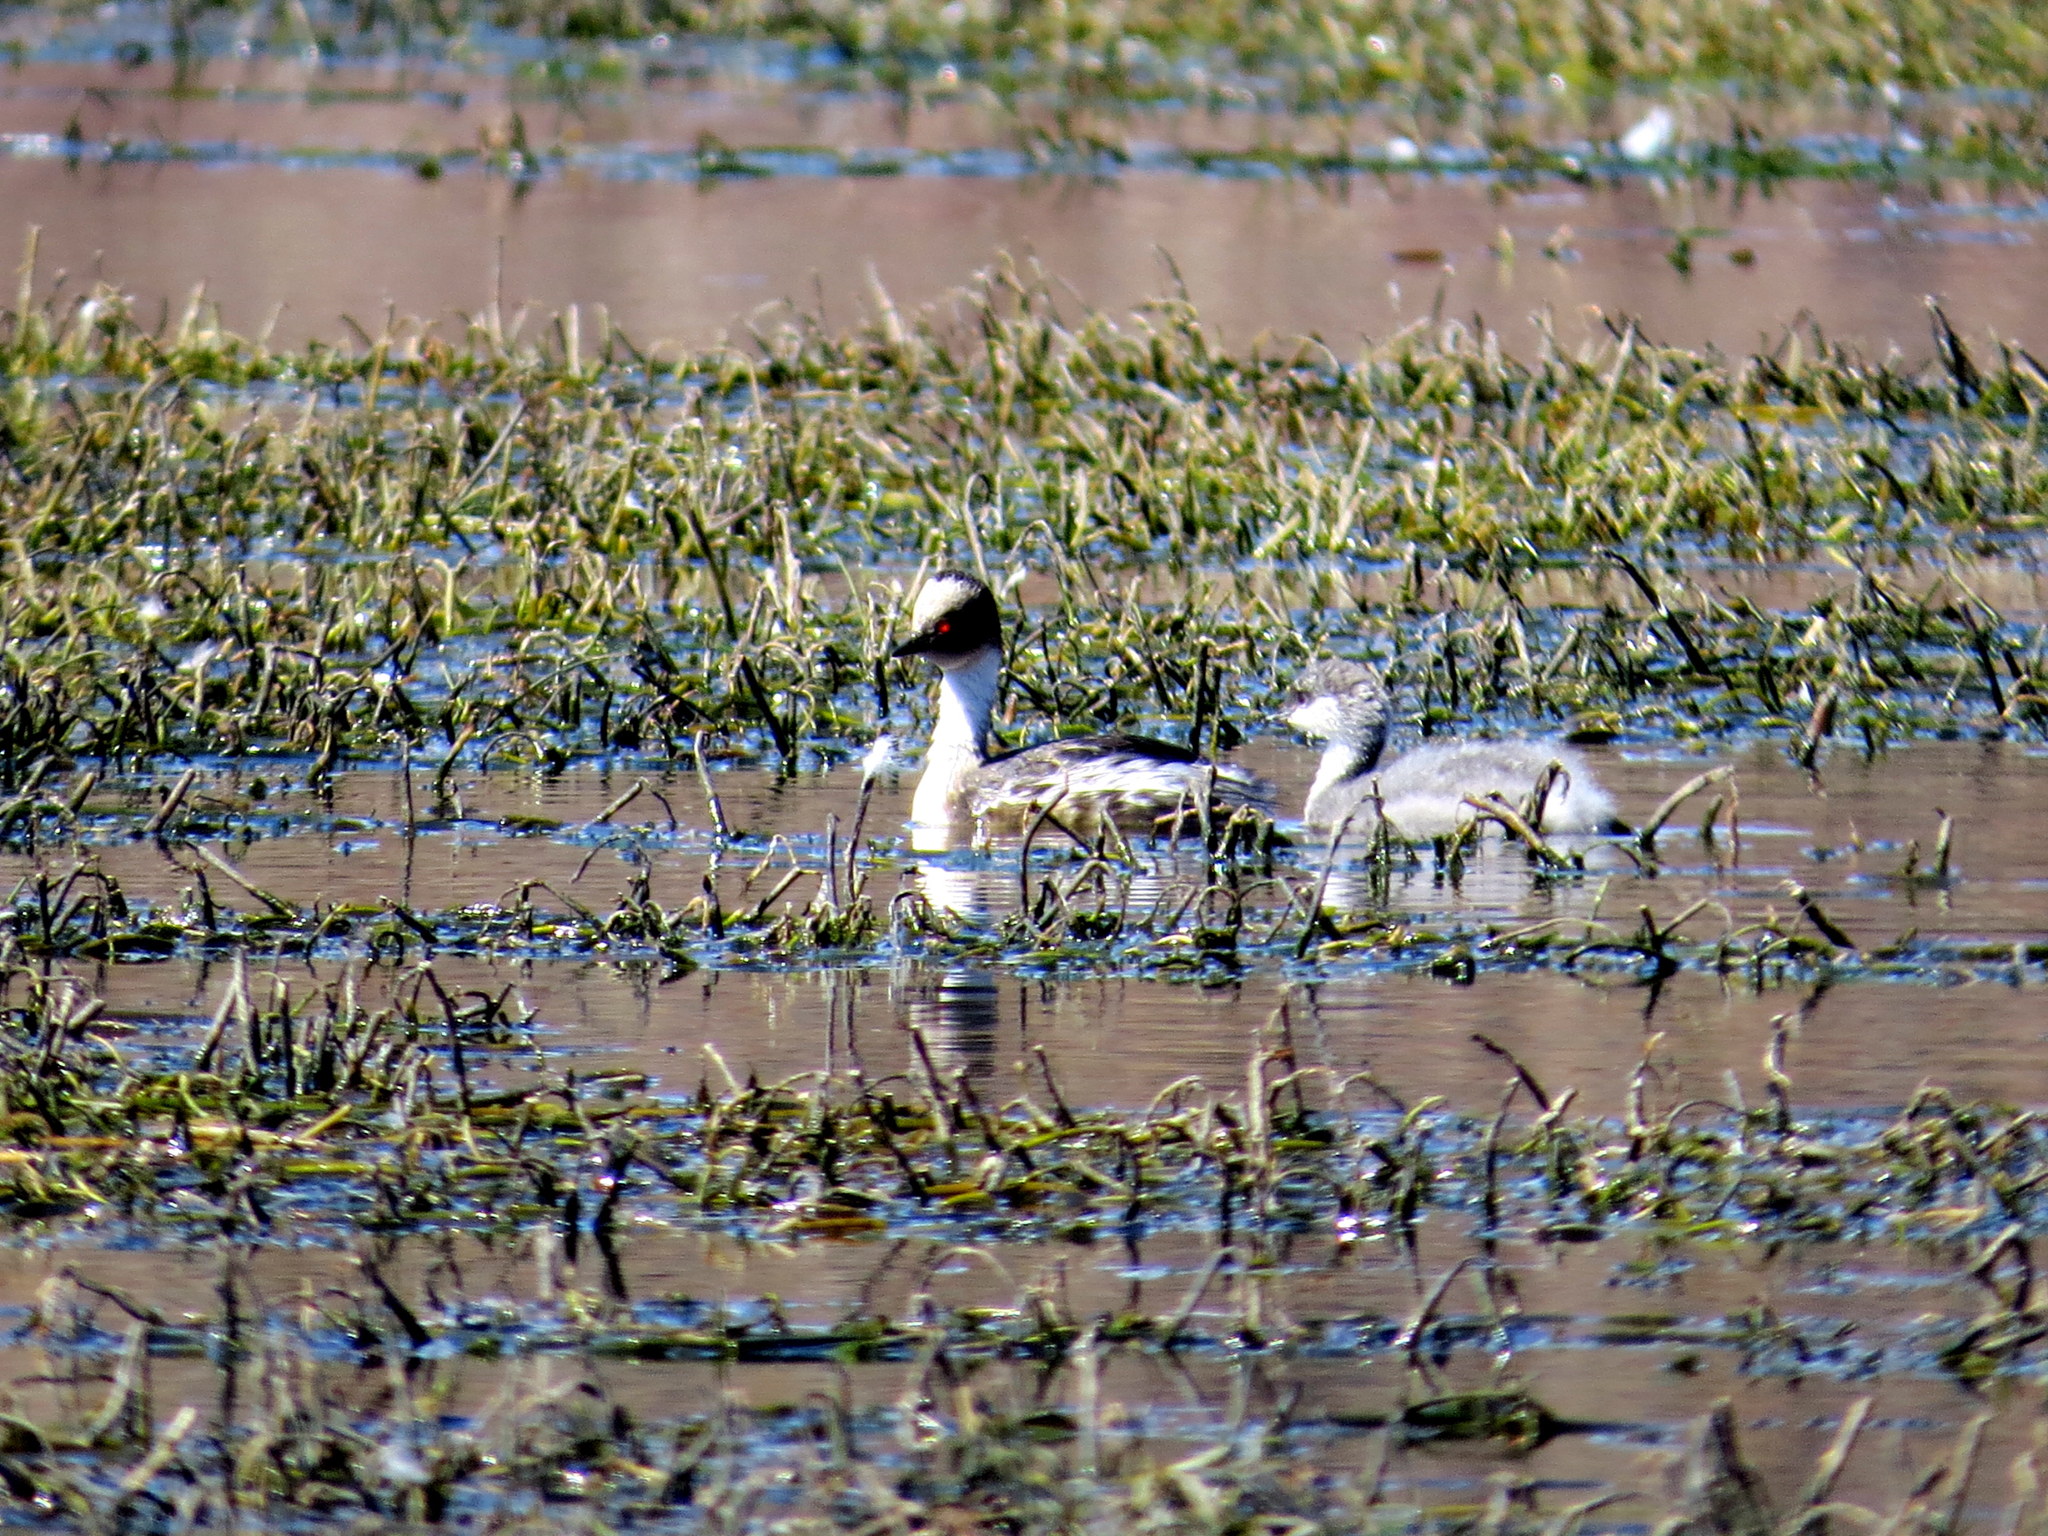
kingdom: Animalia
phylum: Chordata
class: Aves
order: Podicipediformes
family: Podicipedidae
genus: Podiceps
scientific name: Podiceps occipitalis
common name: Silvery grebe
